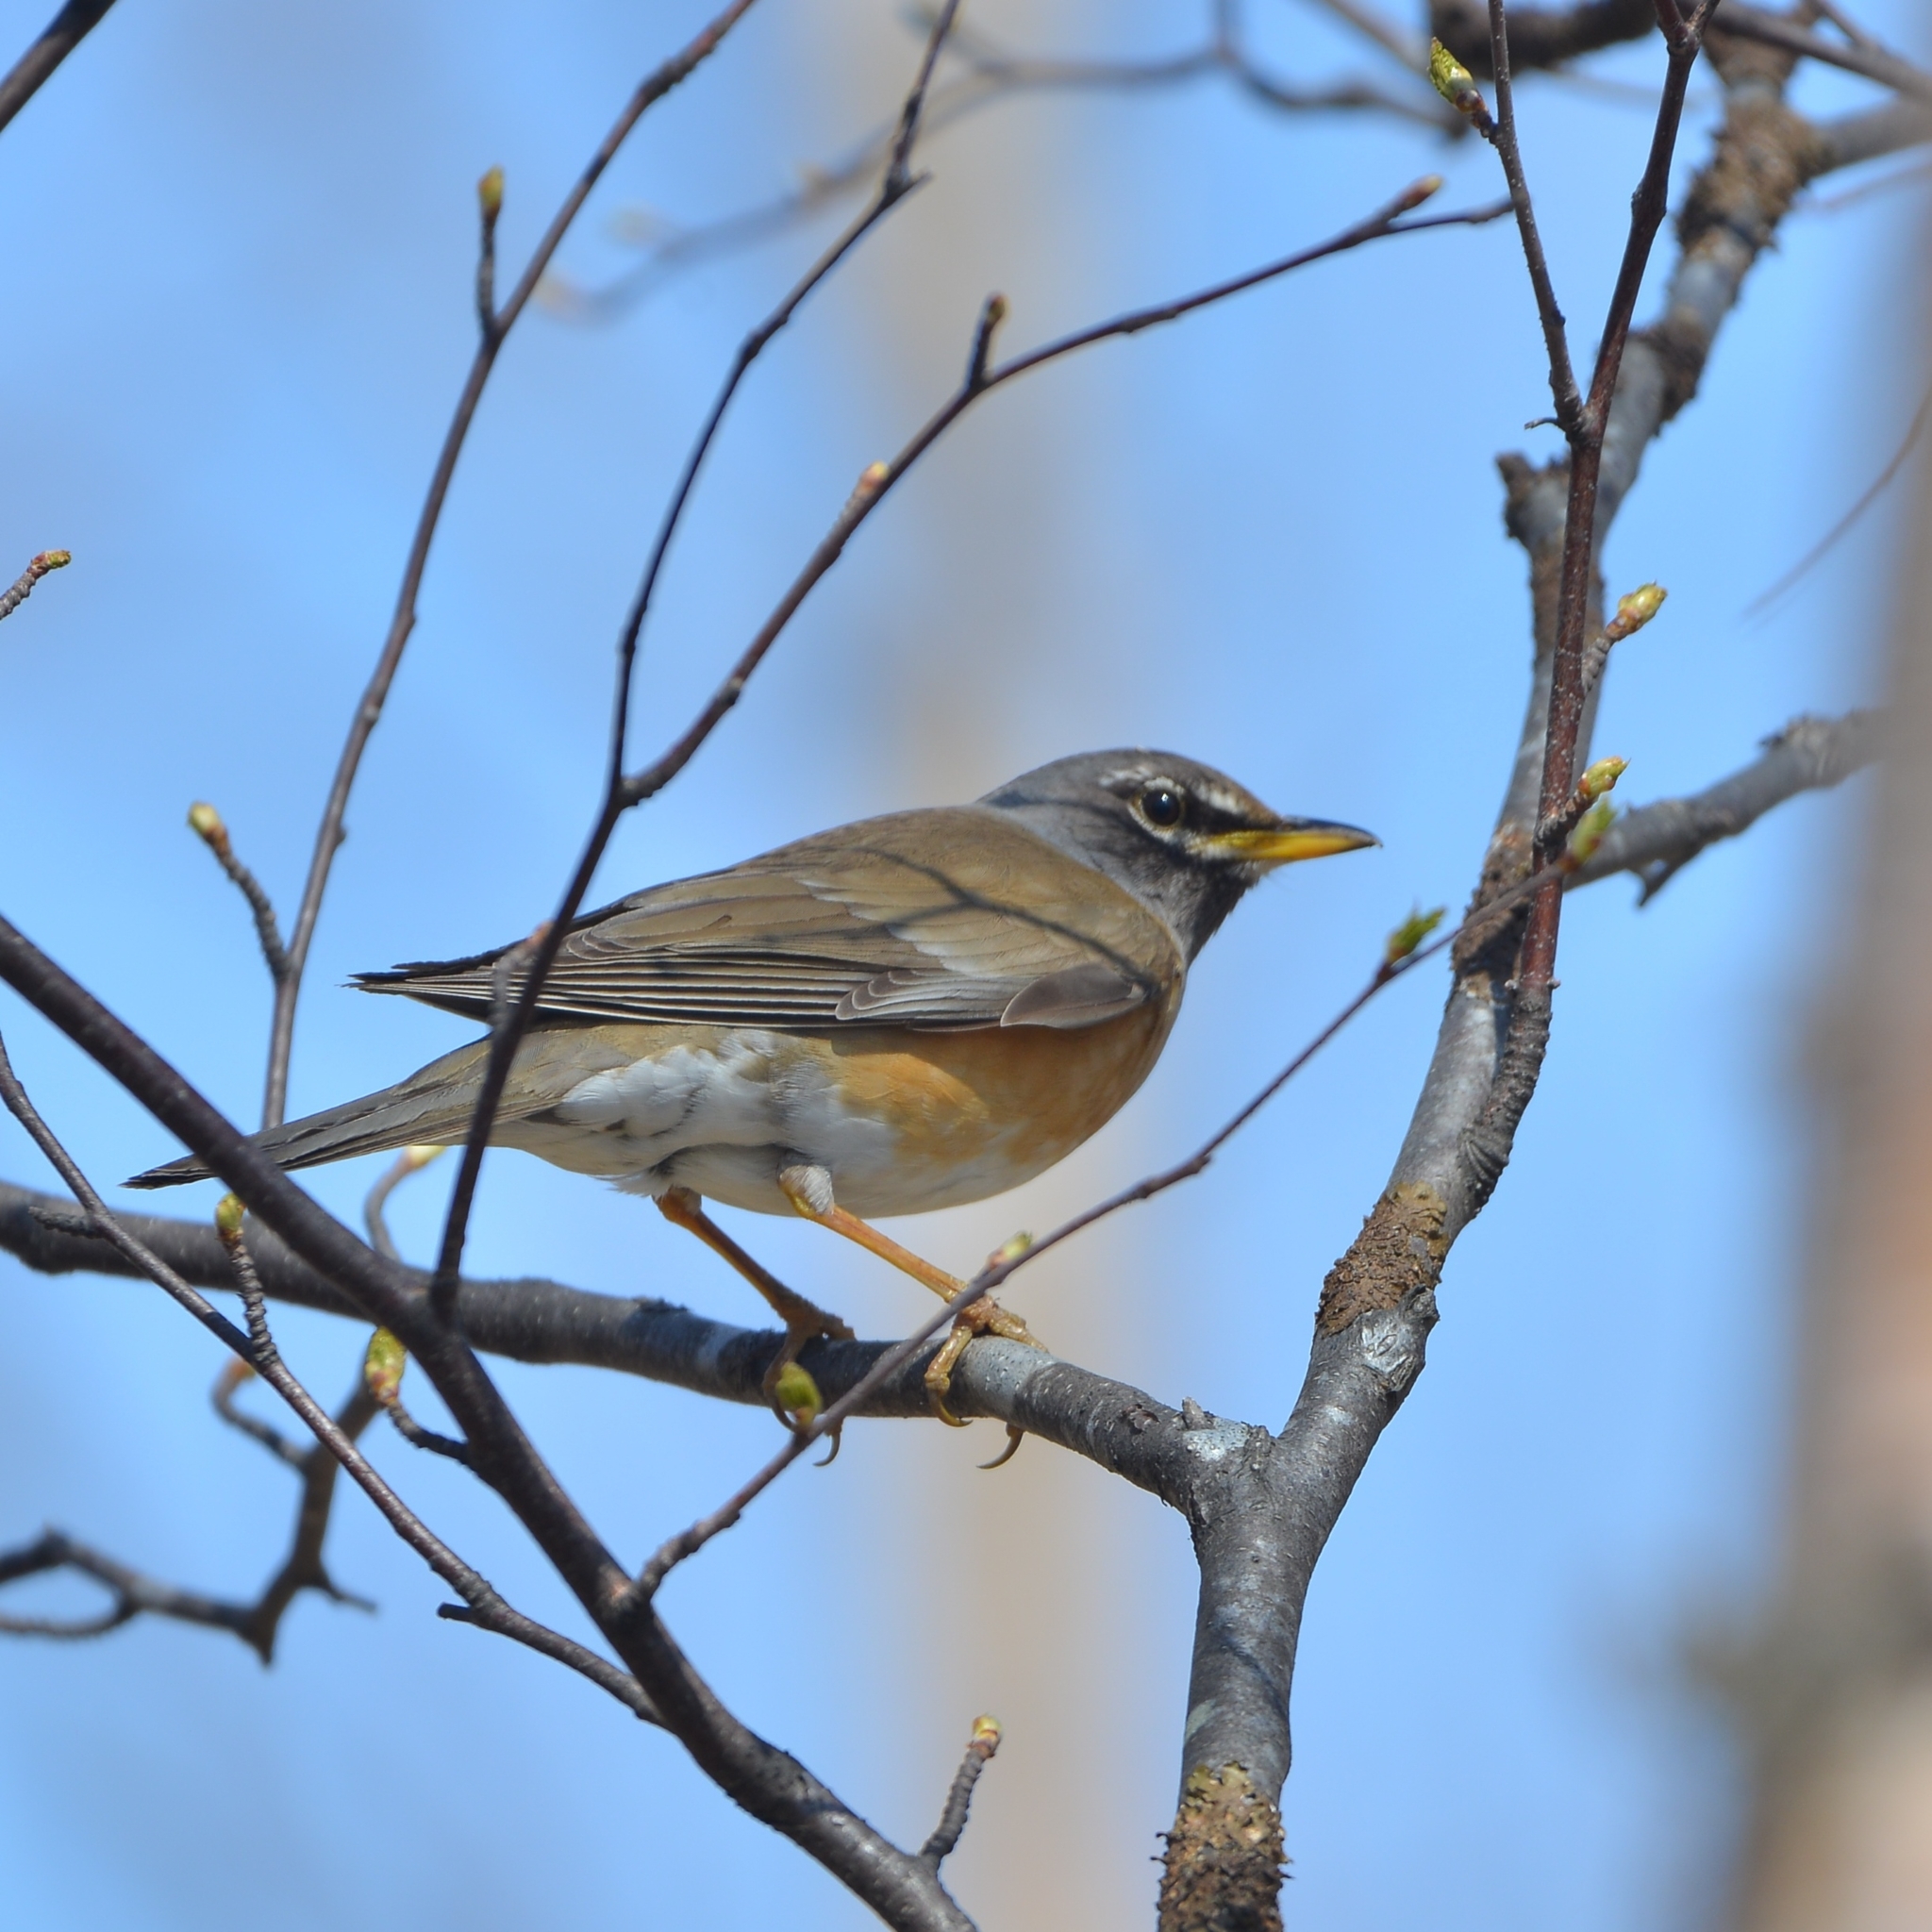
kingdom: Animalia
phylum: Chordata
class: Aves
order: Passeriformes
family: Turdidae
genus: Turdus
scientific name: Turdus obscurus
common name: Eyebrowed thrush
